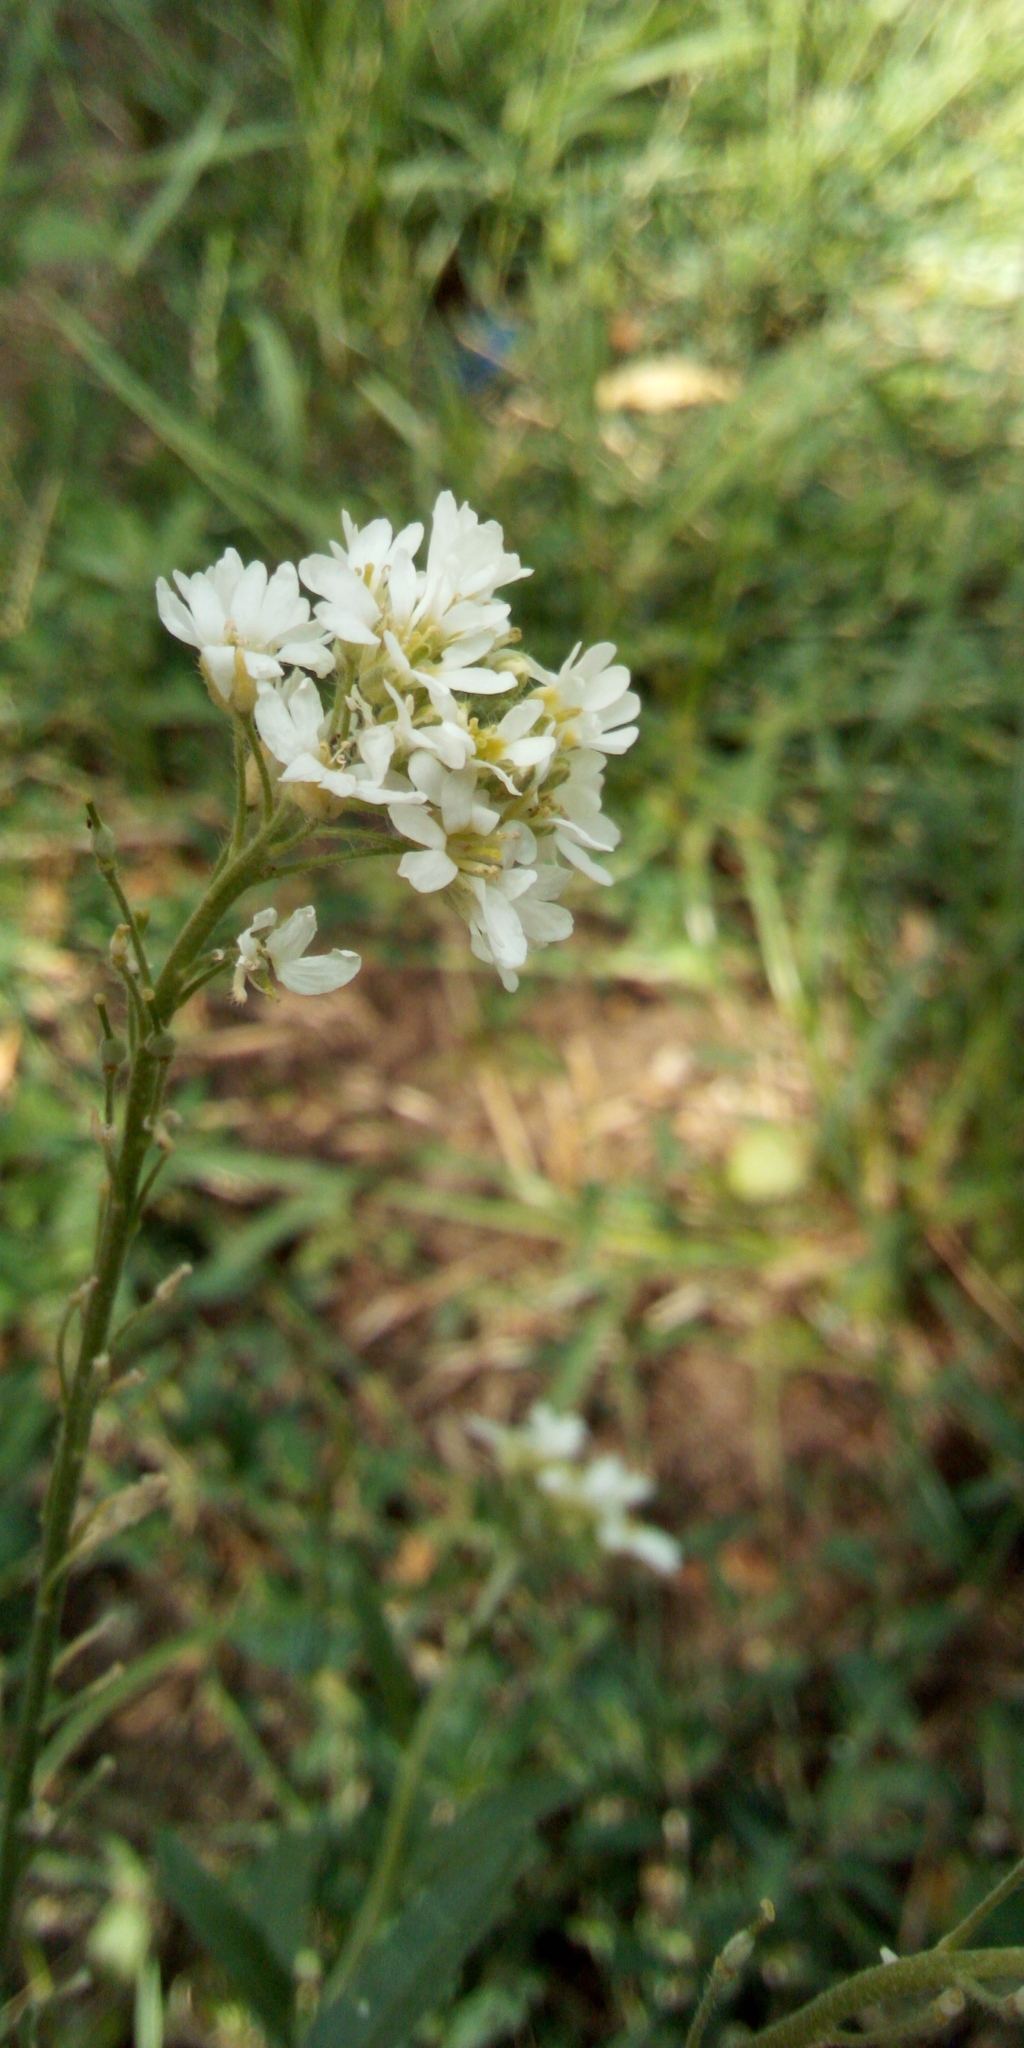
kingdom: Plantae
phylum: Tracheophyta
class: Magnoliopsida
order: Brassicales
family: Brassicaceae
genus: Berteroa
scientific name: Berteroa incana
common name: Hoary alison
